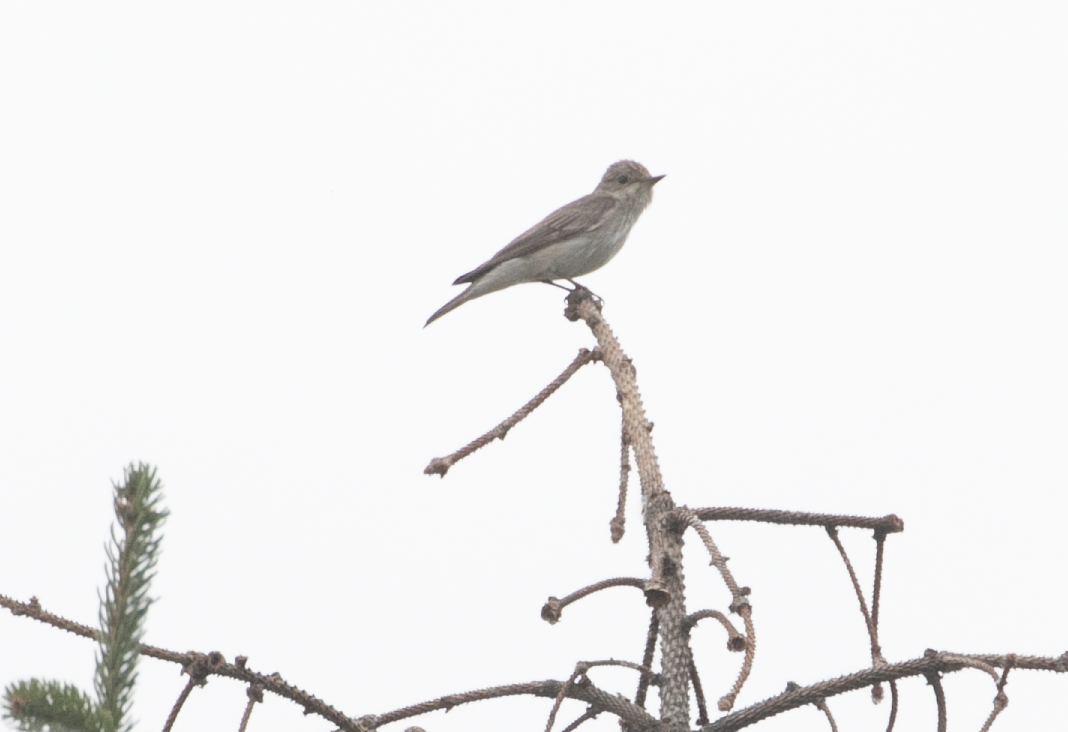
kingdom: Animalia
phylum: Chordata
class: Aves
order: Passeriformes
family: Muscicapidae
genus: Muscicapa
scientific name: Muscicapa striata
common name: Spotted flycatcher
